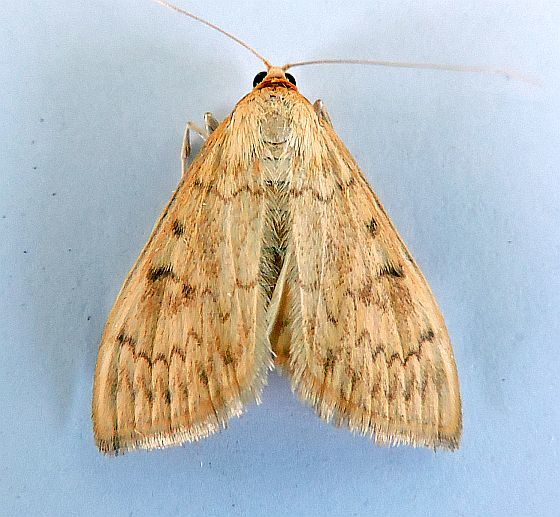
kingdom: Animalia
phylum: Arthropoda
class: Insecta
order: Lepidoptera
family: Crambidae
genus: Hahncappsia
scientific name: Hahncappsia mellinialis
